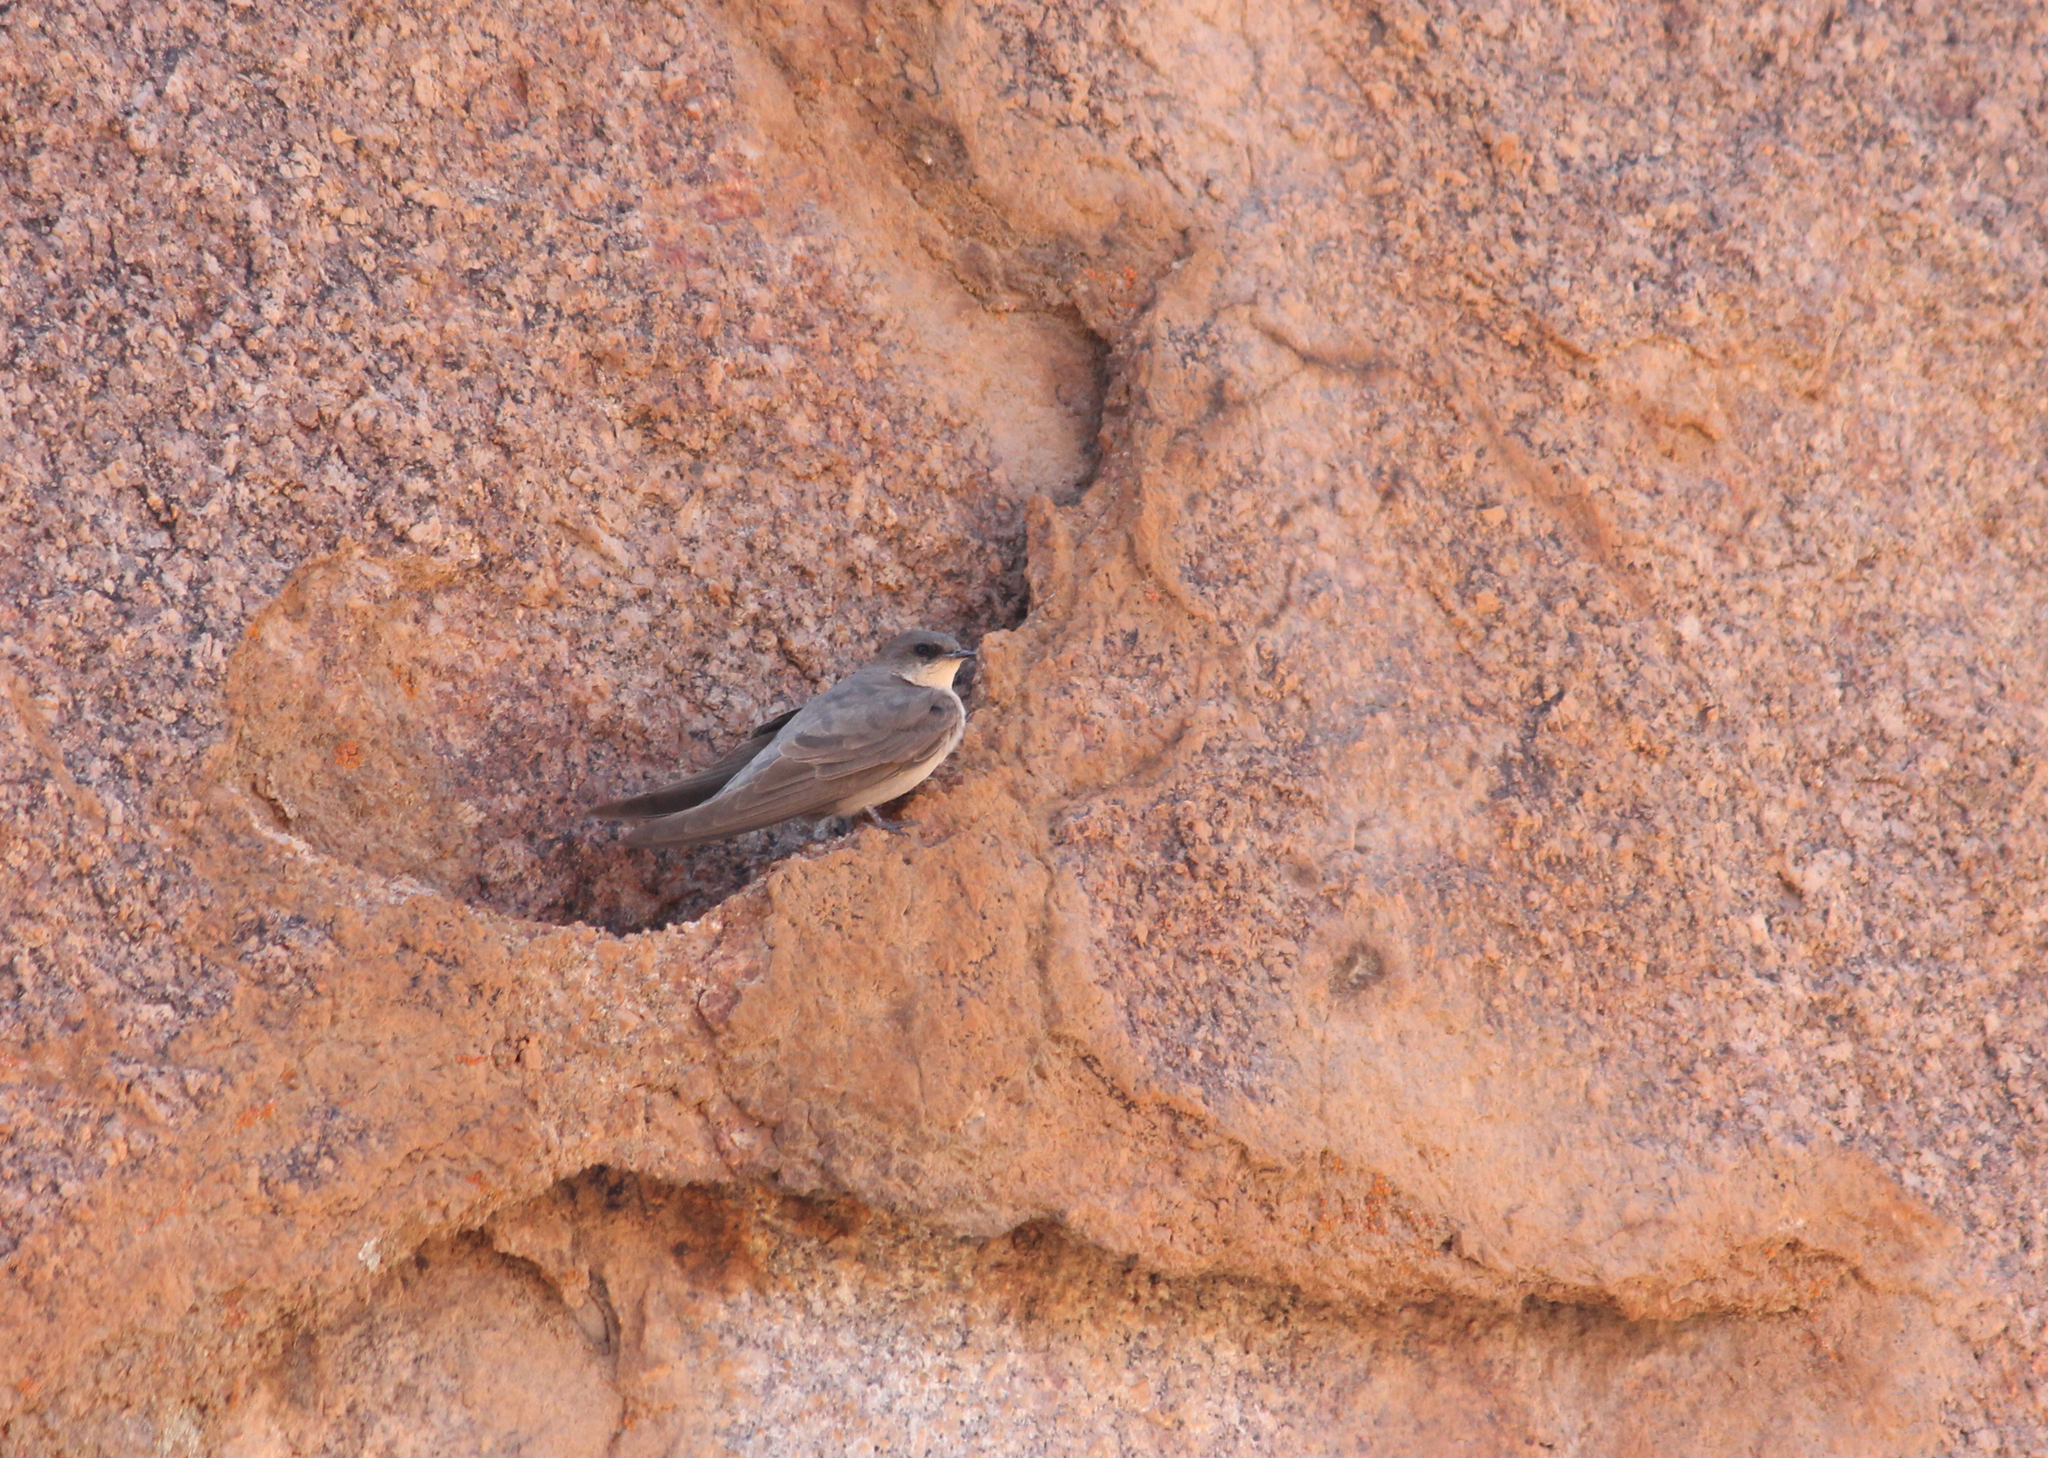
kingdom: Animalia
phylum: Chordata
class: Aves
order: Passeriformes
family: Hirundinidae
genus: Ptyonoprogne
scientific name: Ptyonoprogne fuligula
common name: Rock martin
